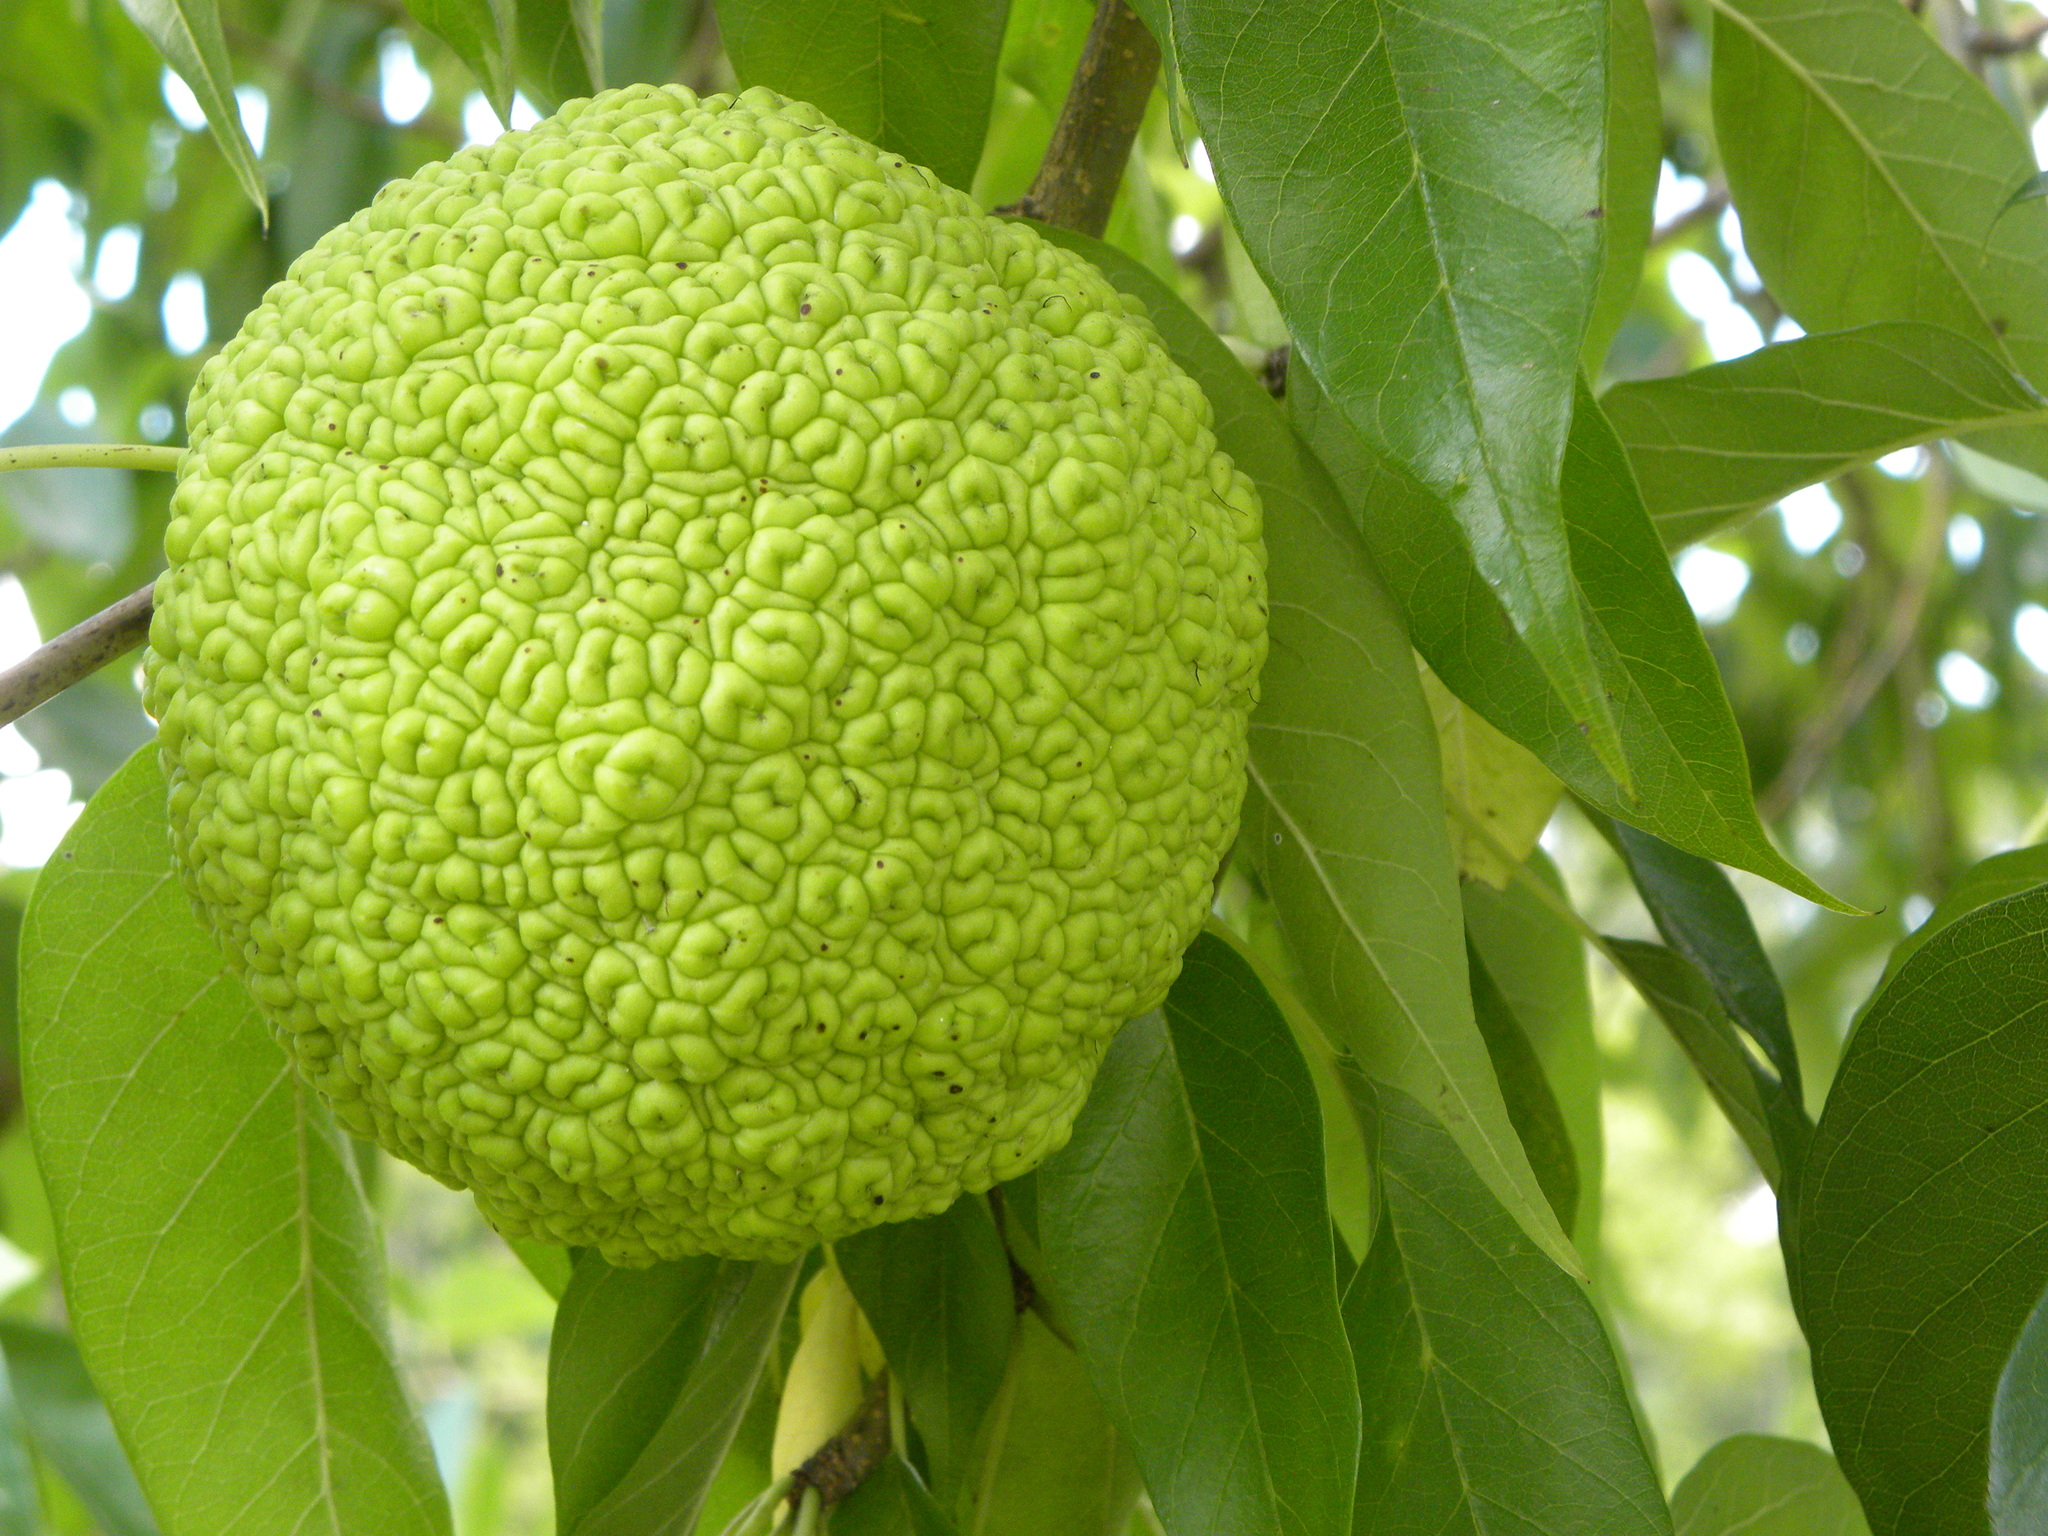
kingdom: Plantae
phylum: Tracheophyta
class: Magnoliopsida
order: Rosales
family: Moraceae
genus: Maclura
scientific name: Maclura pomifera
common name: Osage-orange
